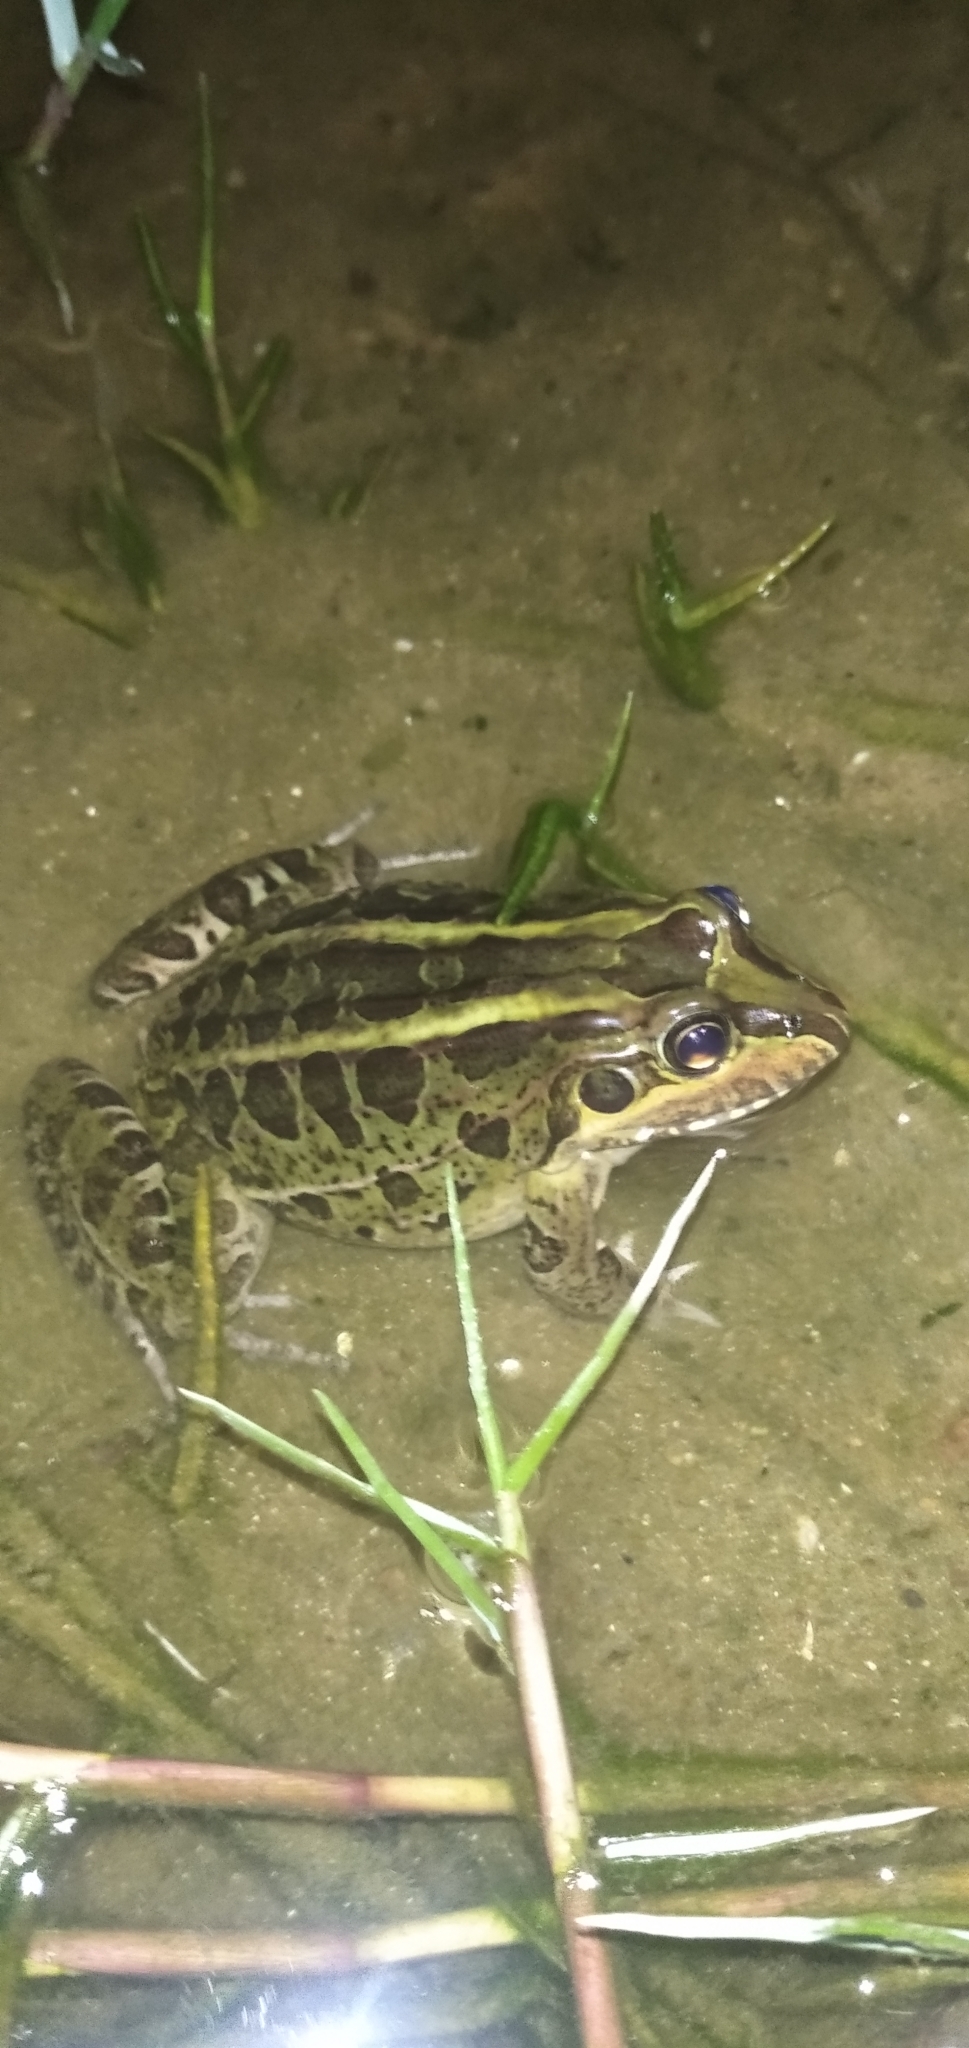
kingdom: Animalia
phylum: Chordata
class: Amphibia
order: Anura
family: Leptodactylidae
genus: Leptodactylus
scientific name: Leptodactylus luctator
